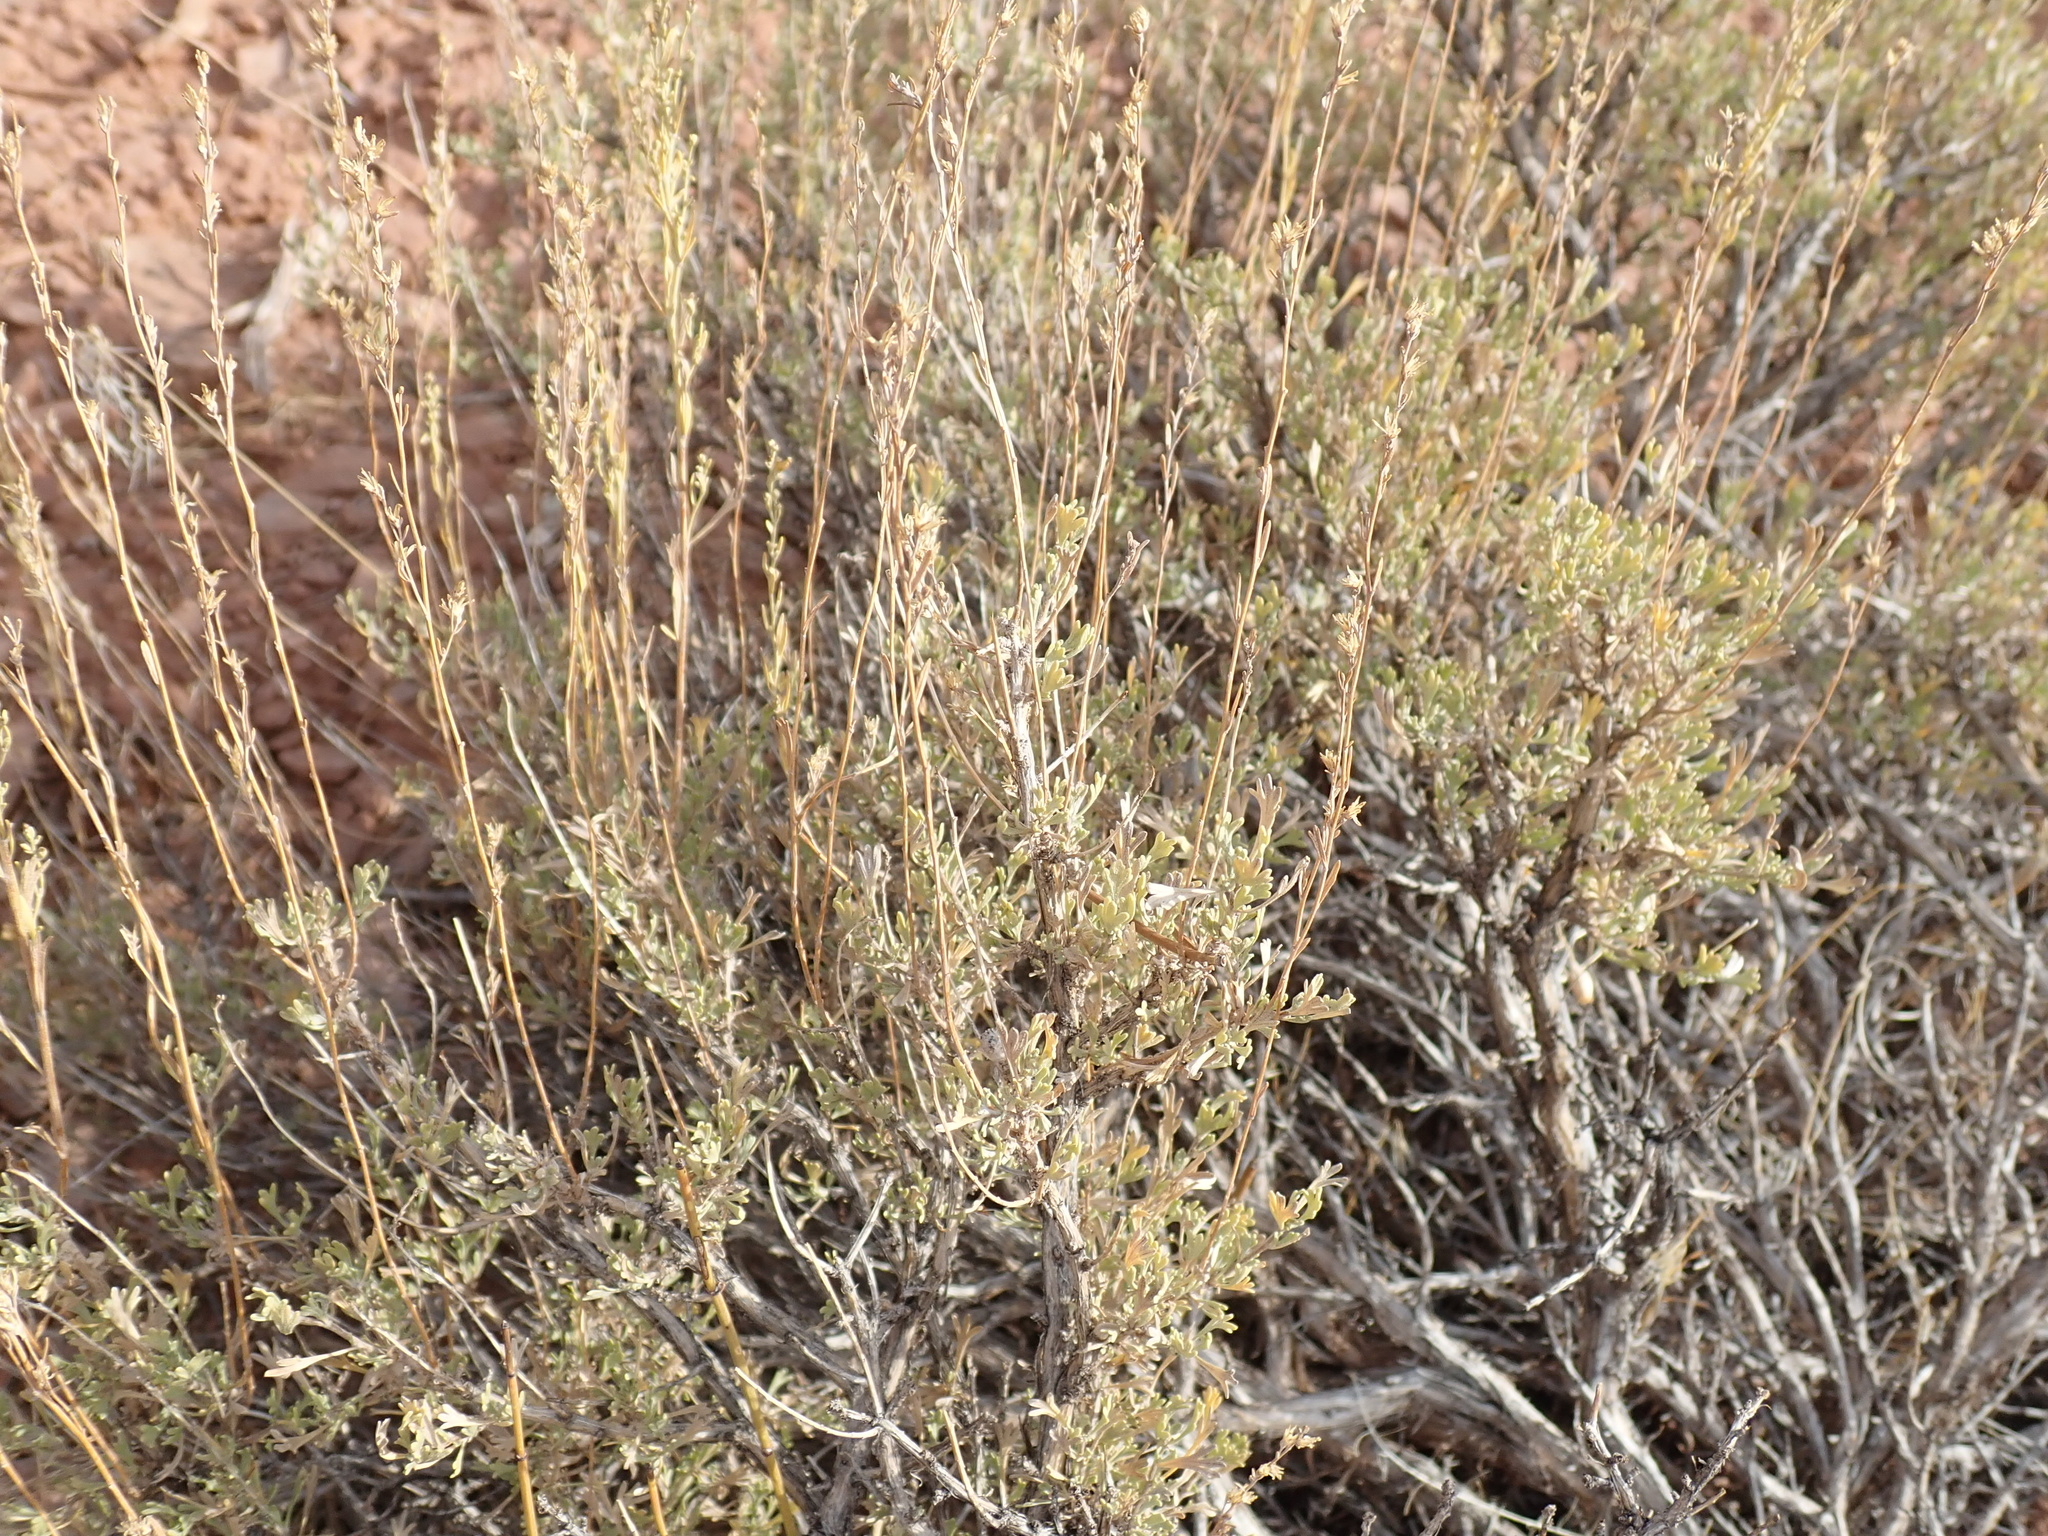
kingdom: Plantae
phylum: Tracheophyta
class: Magnoliopsida
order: Asterales
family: Asteraceae
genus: Artemisia
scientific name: Artemisia tridentata
